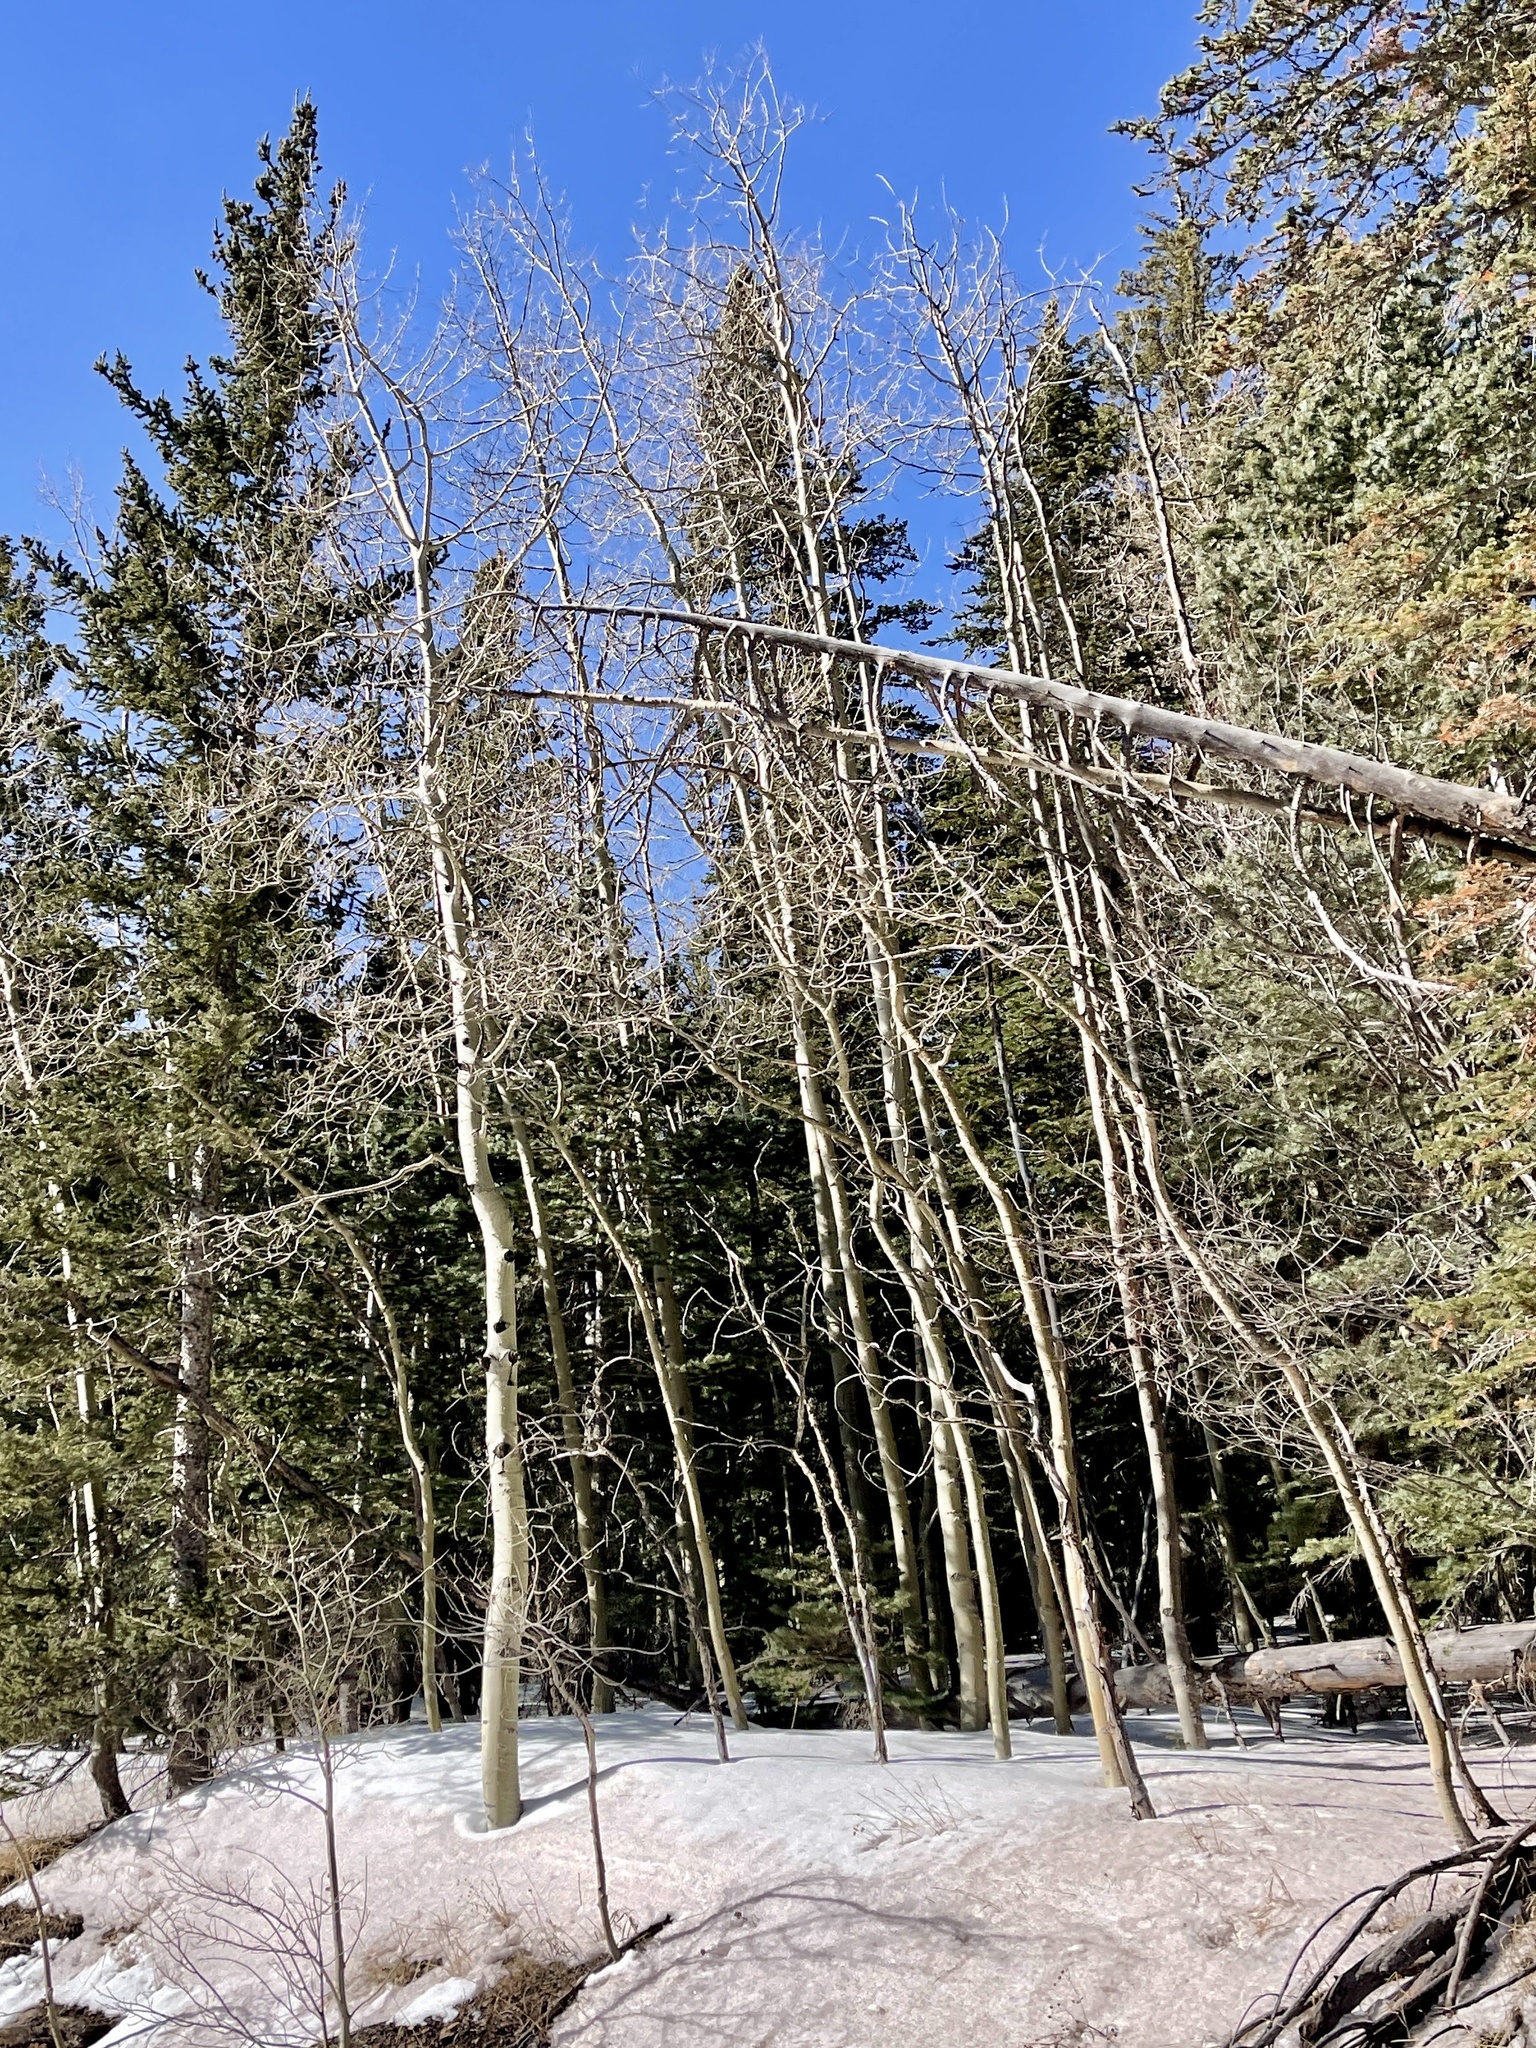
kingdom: Plantae
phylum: Tracheophyta
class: Magnoliopsida
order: Malpighiales
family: Salicaceae
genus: Populus
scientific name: Populus tremuloides
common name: Quaking aspen
